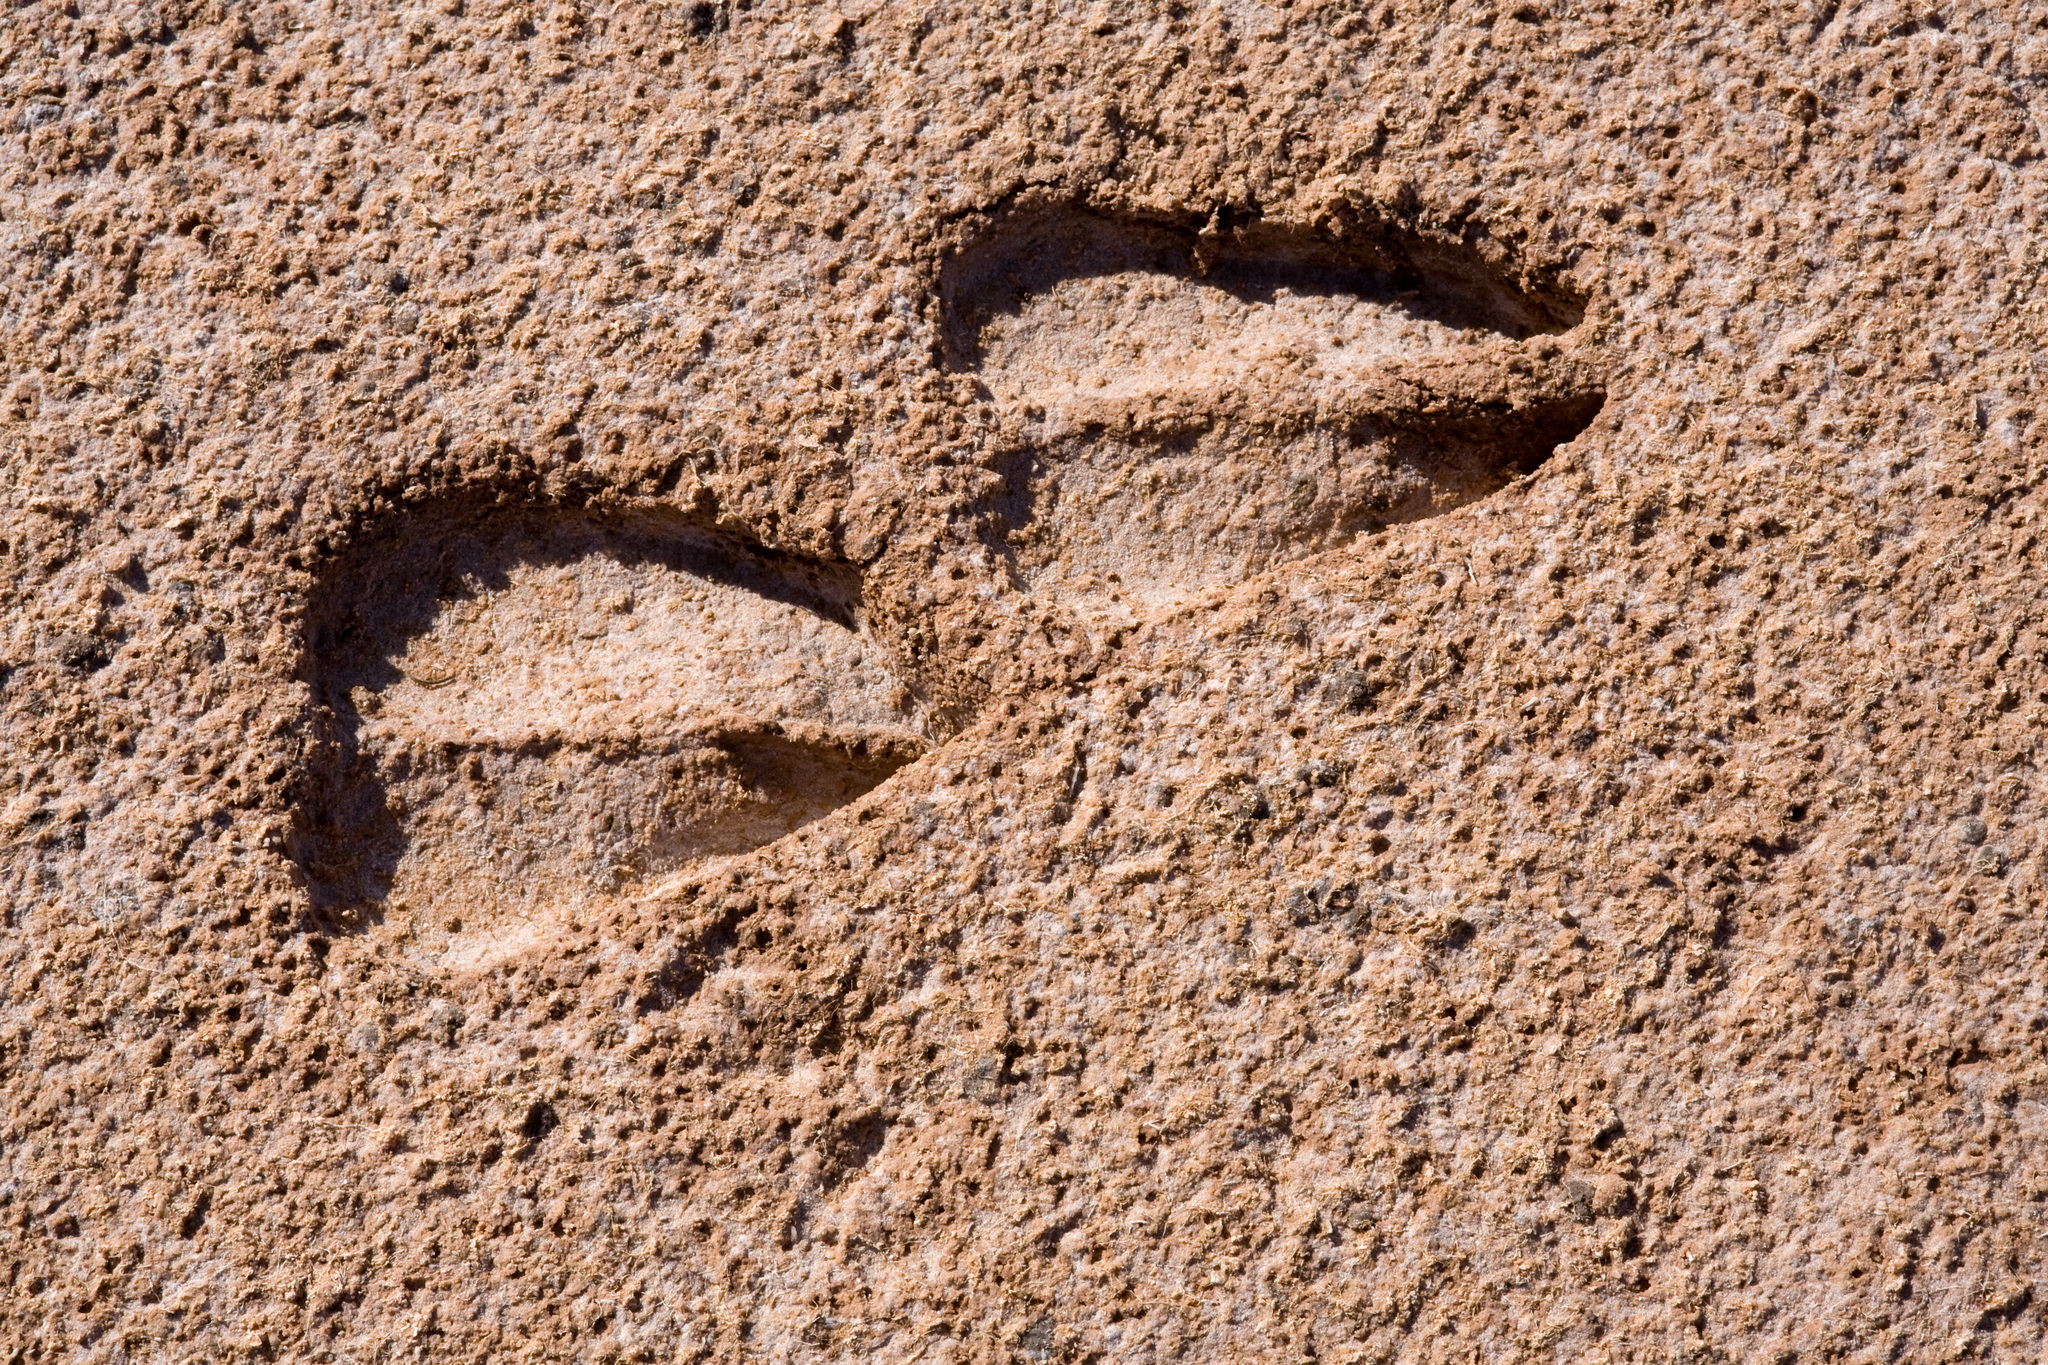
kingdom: Animalia
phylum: Chordata
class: Mammalia
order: Artiodactyla
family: Bovidae
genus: Oryx
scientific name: Oryx gazella
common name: Gemsbok
